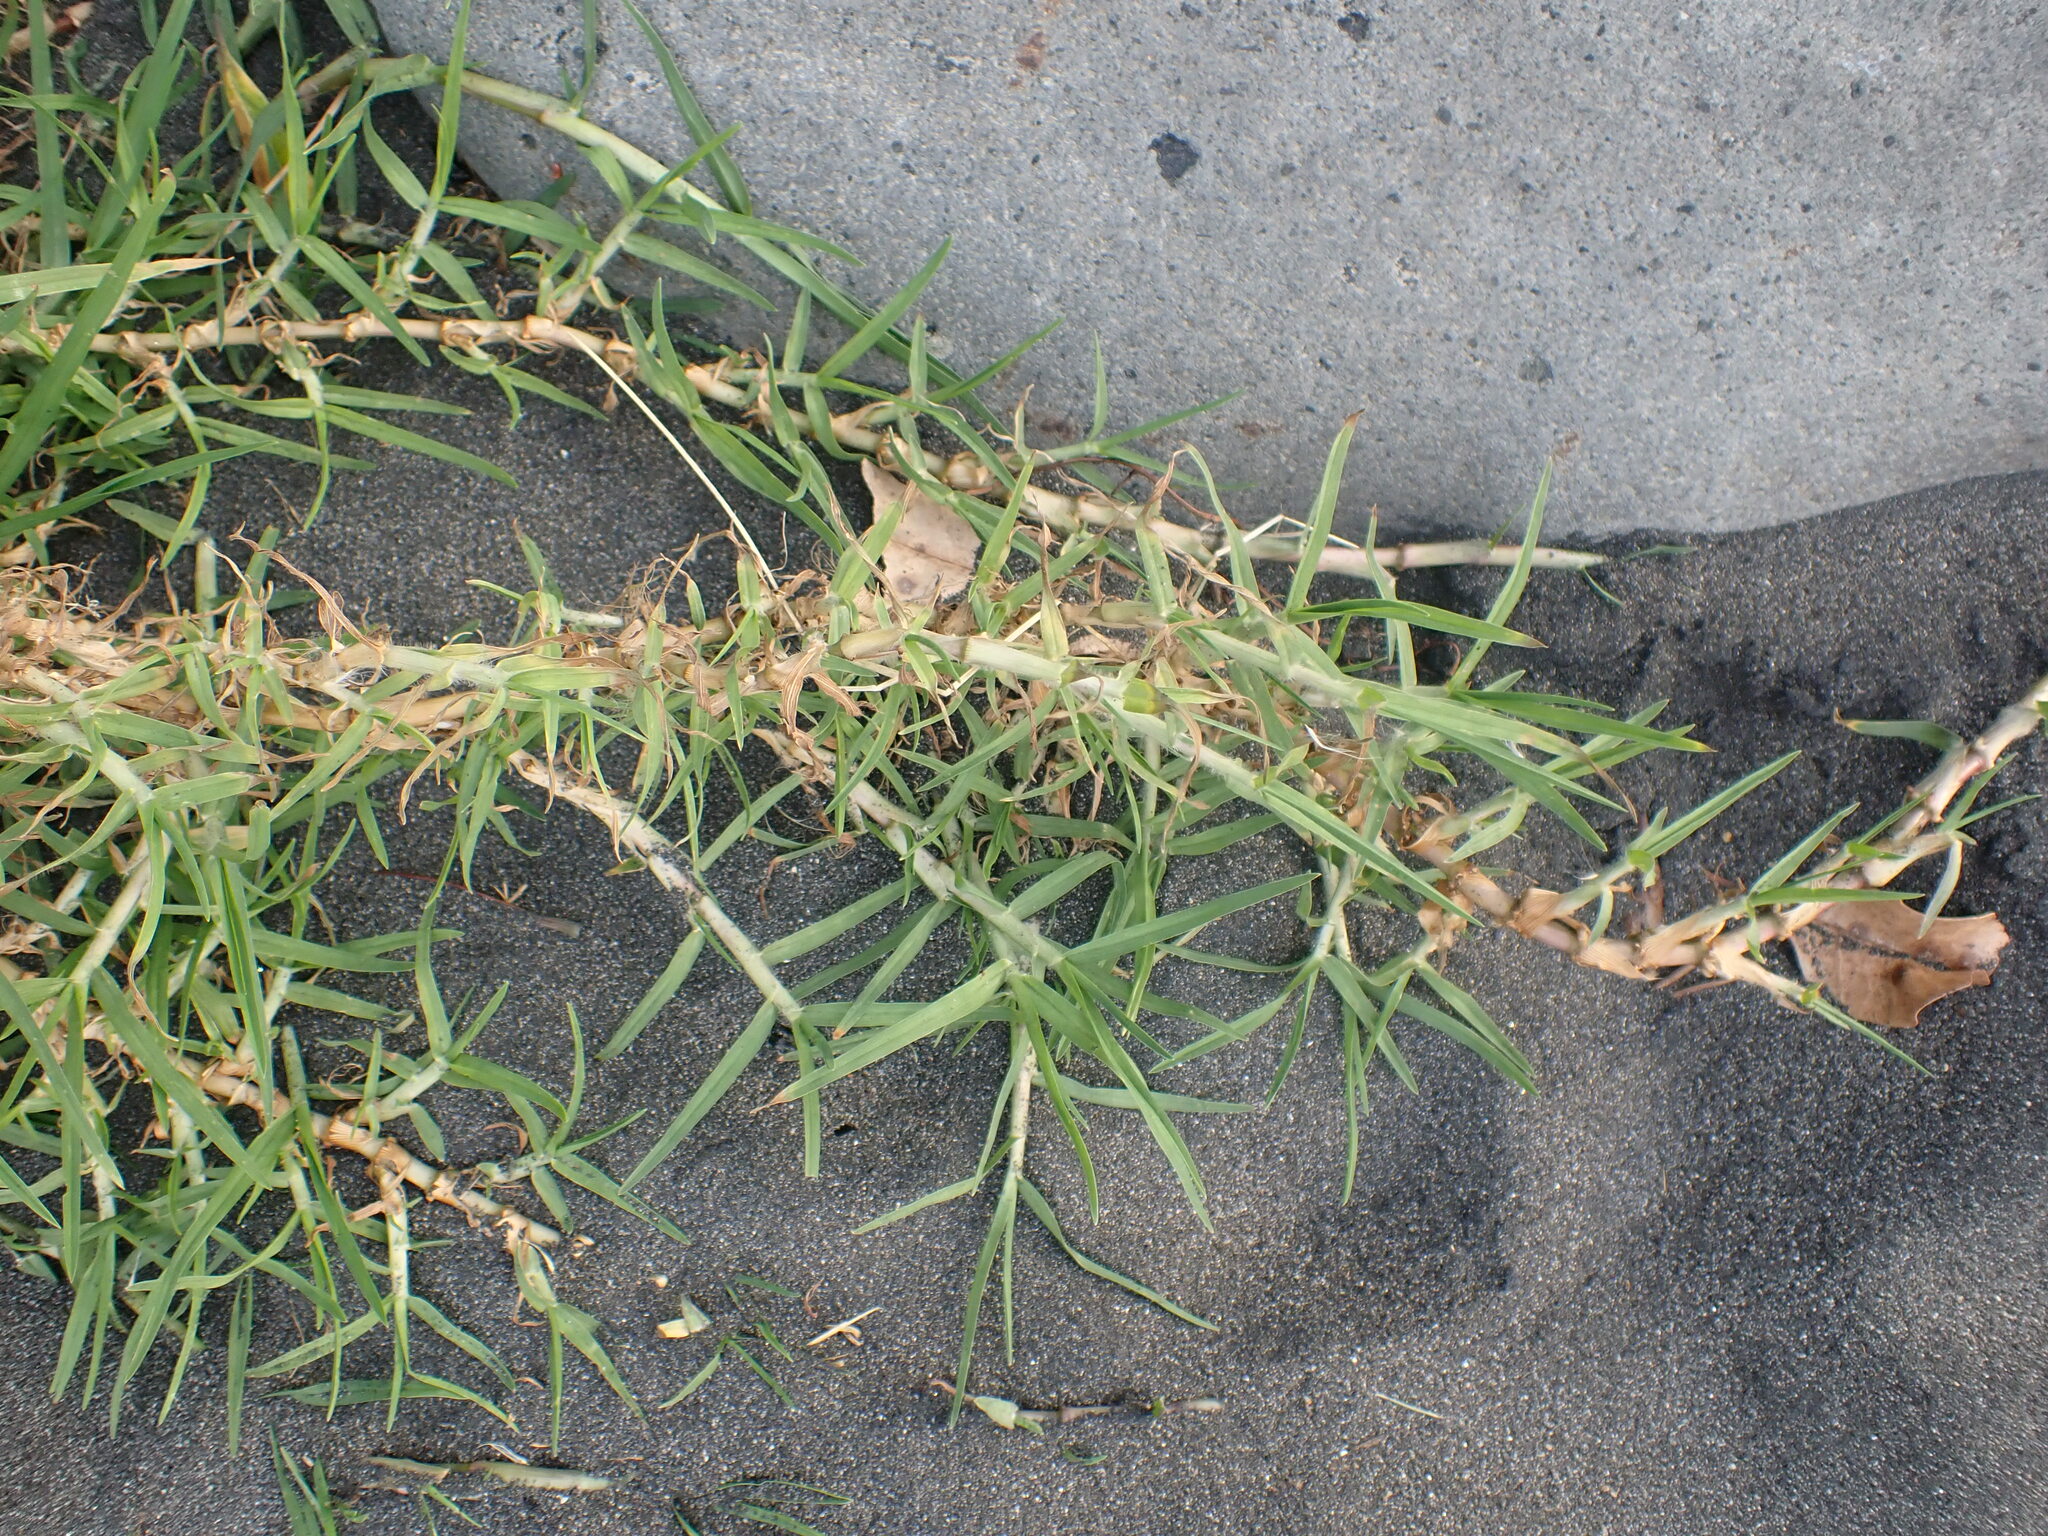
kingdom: Plantae
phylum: Tracheophyta
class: Liliopsida
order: Poales
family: Poaceae
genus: Cenchrus
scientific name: Cenchrus clandestinus
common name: Kikuyugrass
